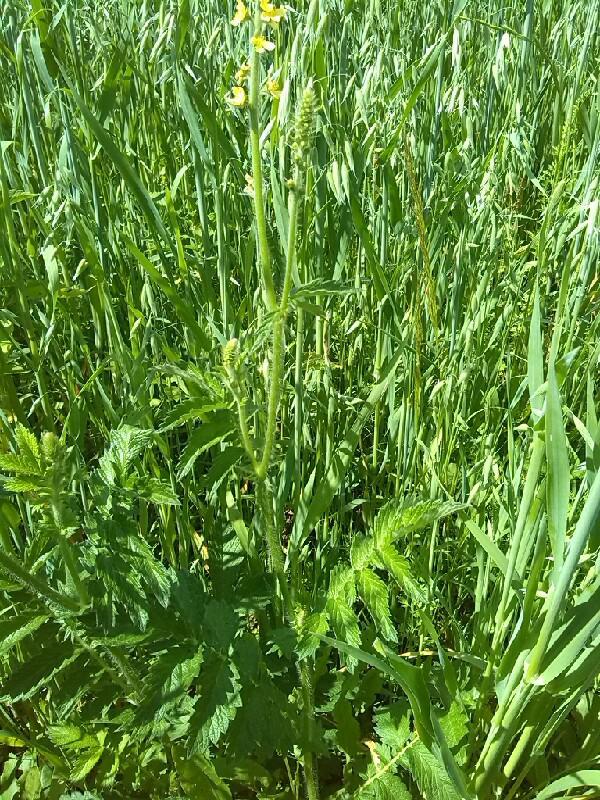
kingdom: Plantae
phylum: Tracheophyta
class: Magnoliopsida
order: Rosales
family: Rosaceae
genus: Agrimonia
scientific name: Agrimonia eupatoria
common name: Agrimony
